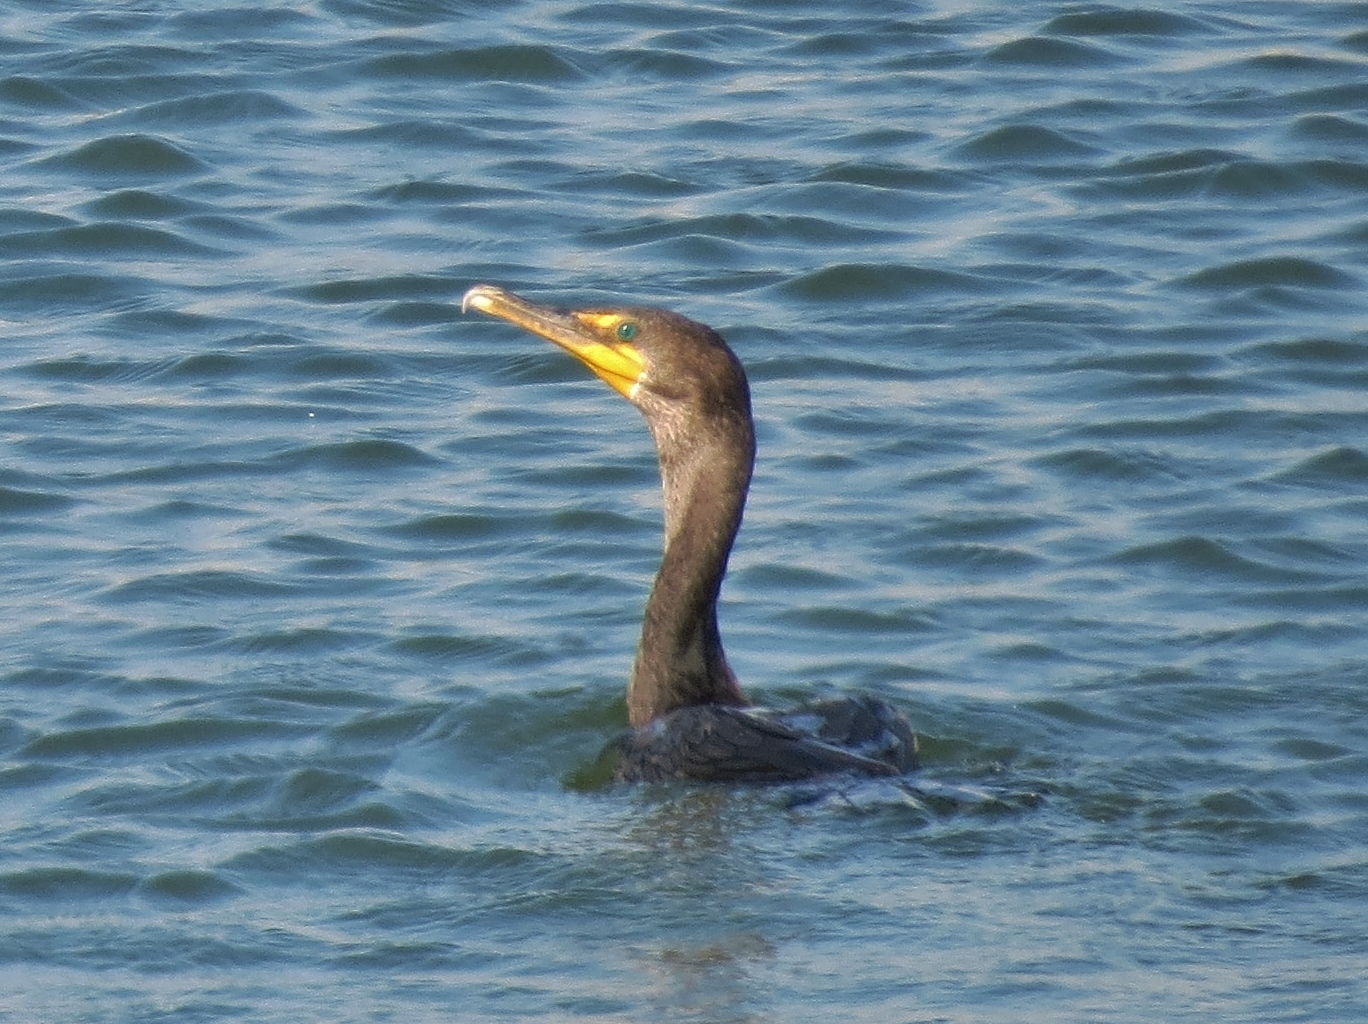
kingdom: Animalia
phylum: Chordata
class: Aves
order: Suliformes
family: Phalacrocoracidae
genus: Phalacrocorax
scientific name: Phalacrocorax auritus
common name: Double-crested cormorant
